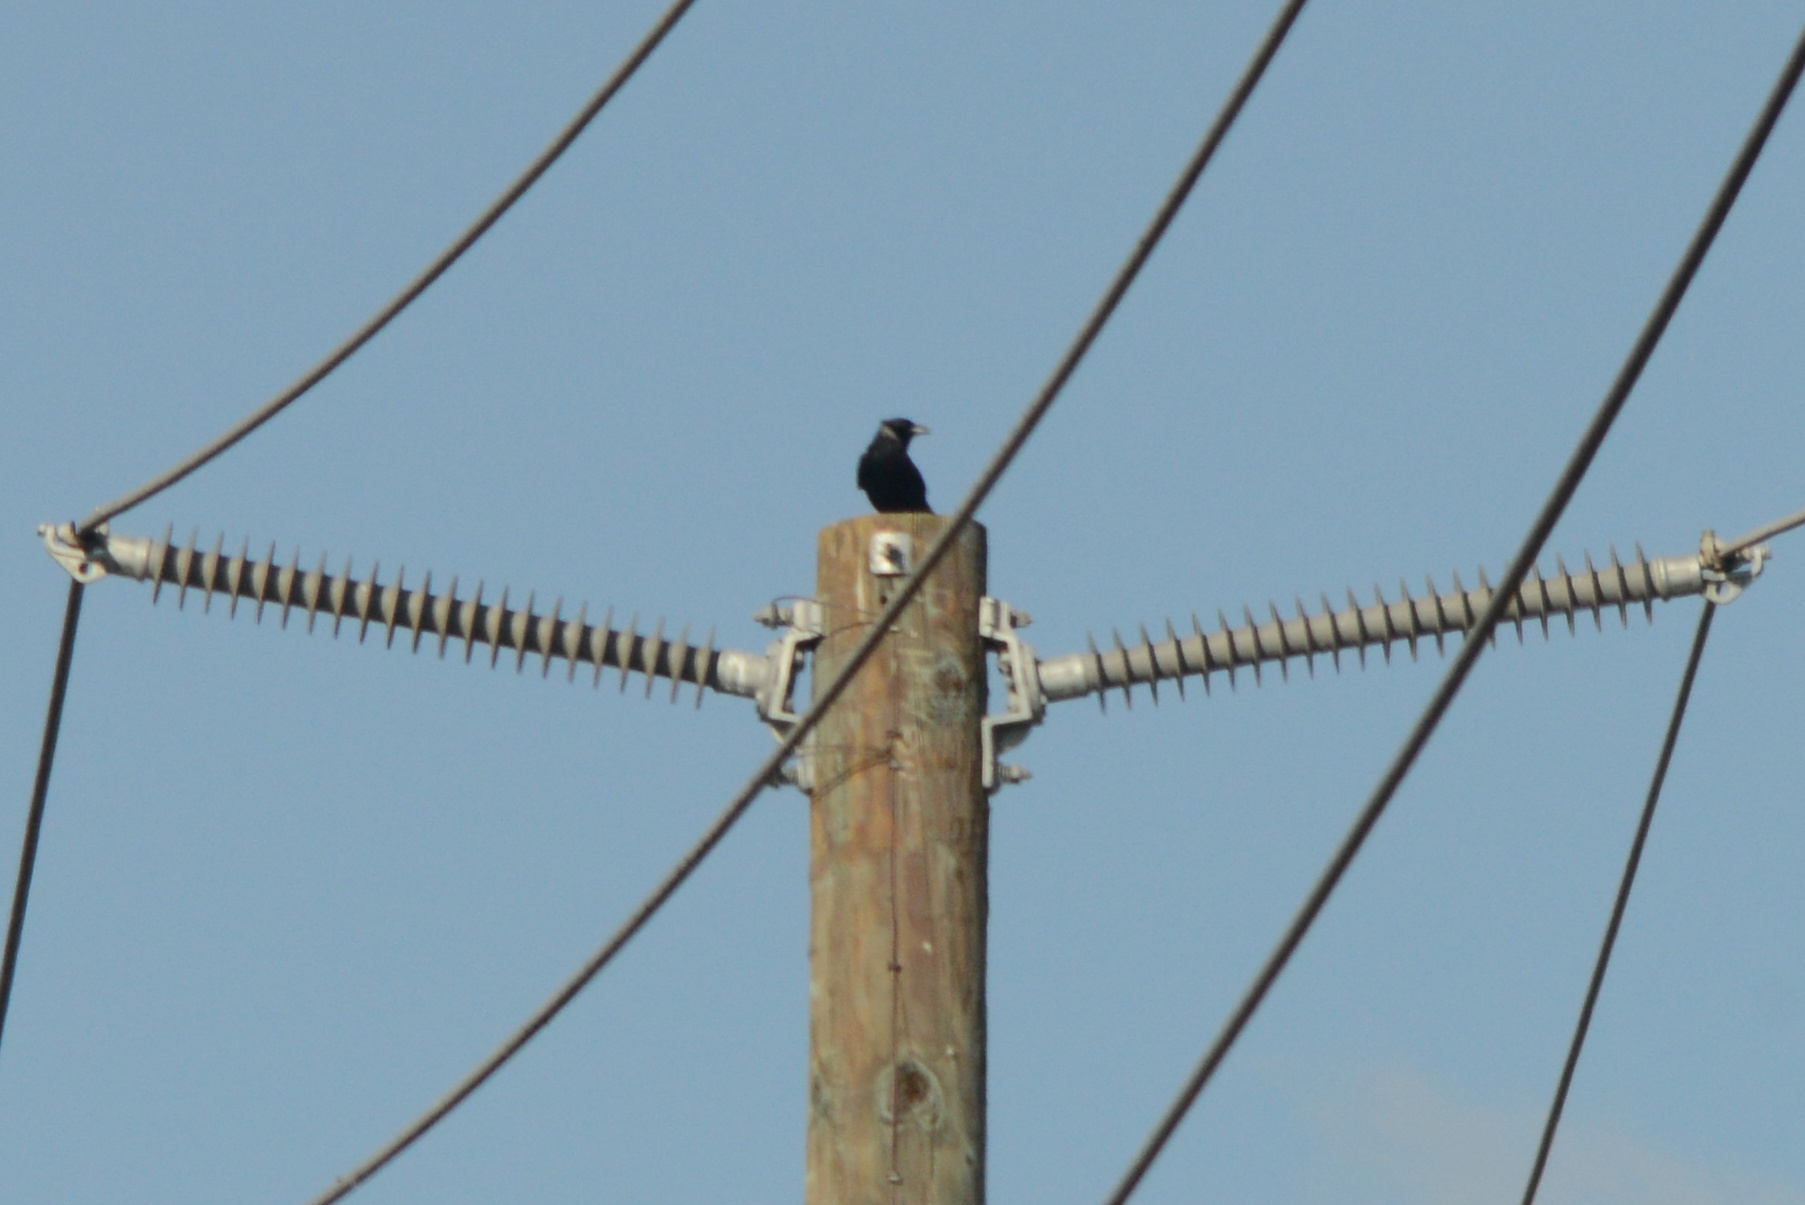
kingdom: Animalia
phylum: Chordata
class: Aves
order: Passeriformes
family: Corvidae
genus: Corvus
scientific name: Corvus brachyrhynchos
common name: American crow
